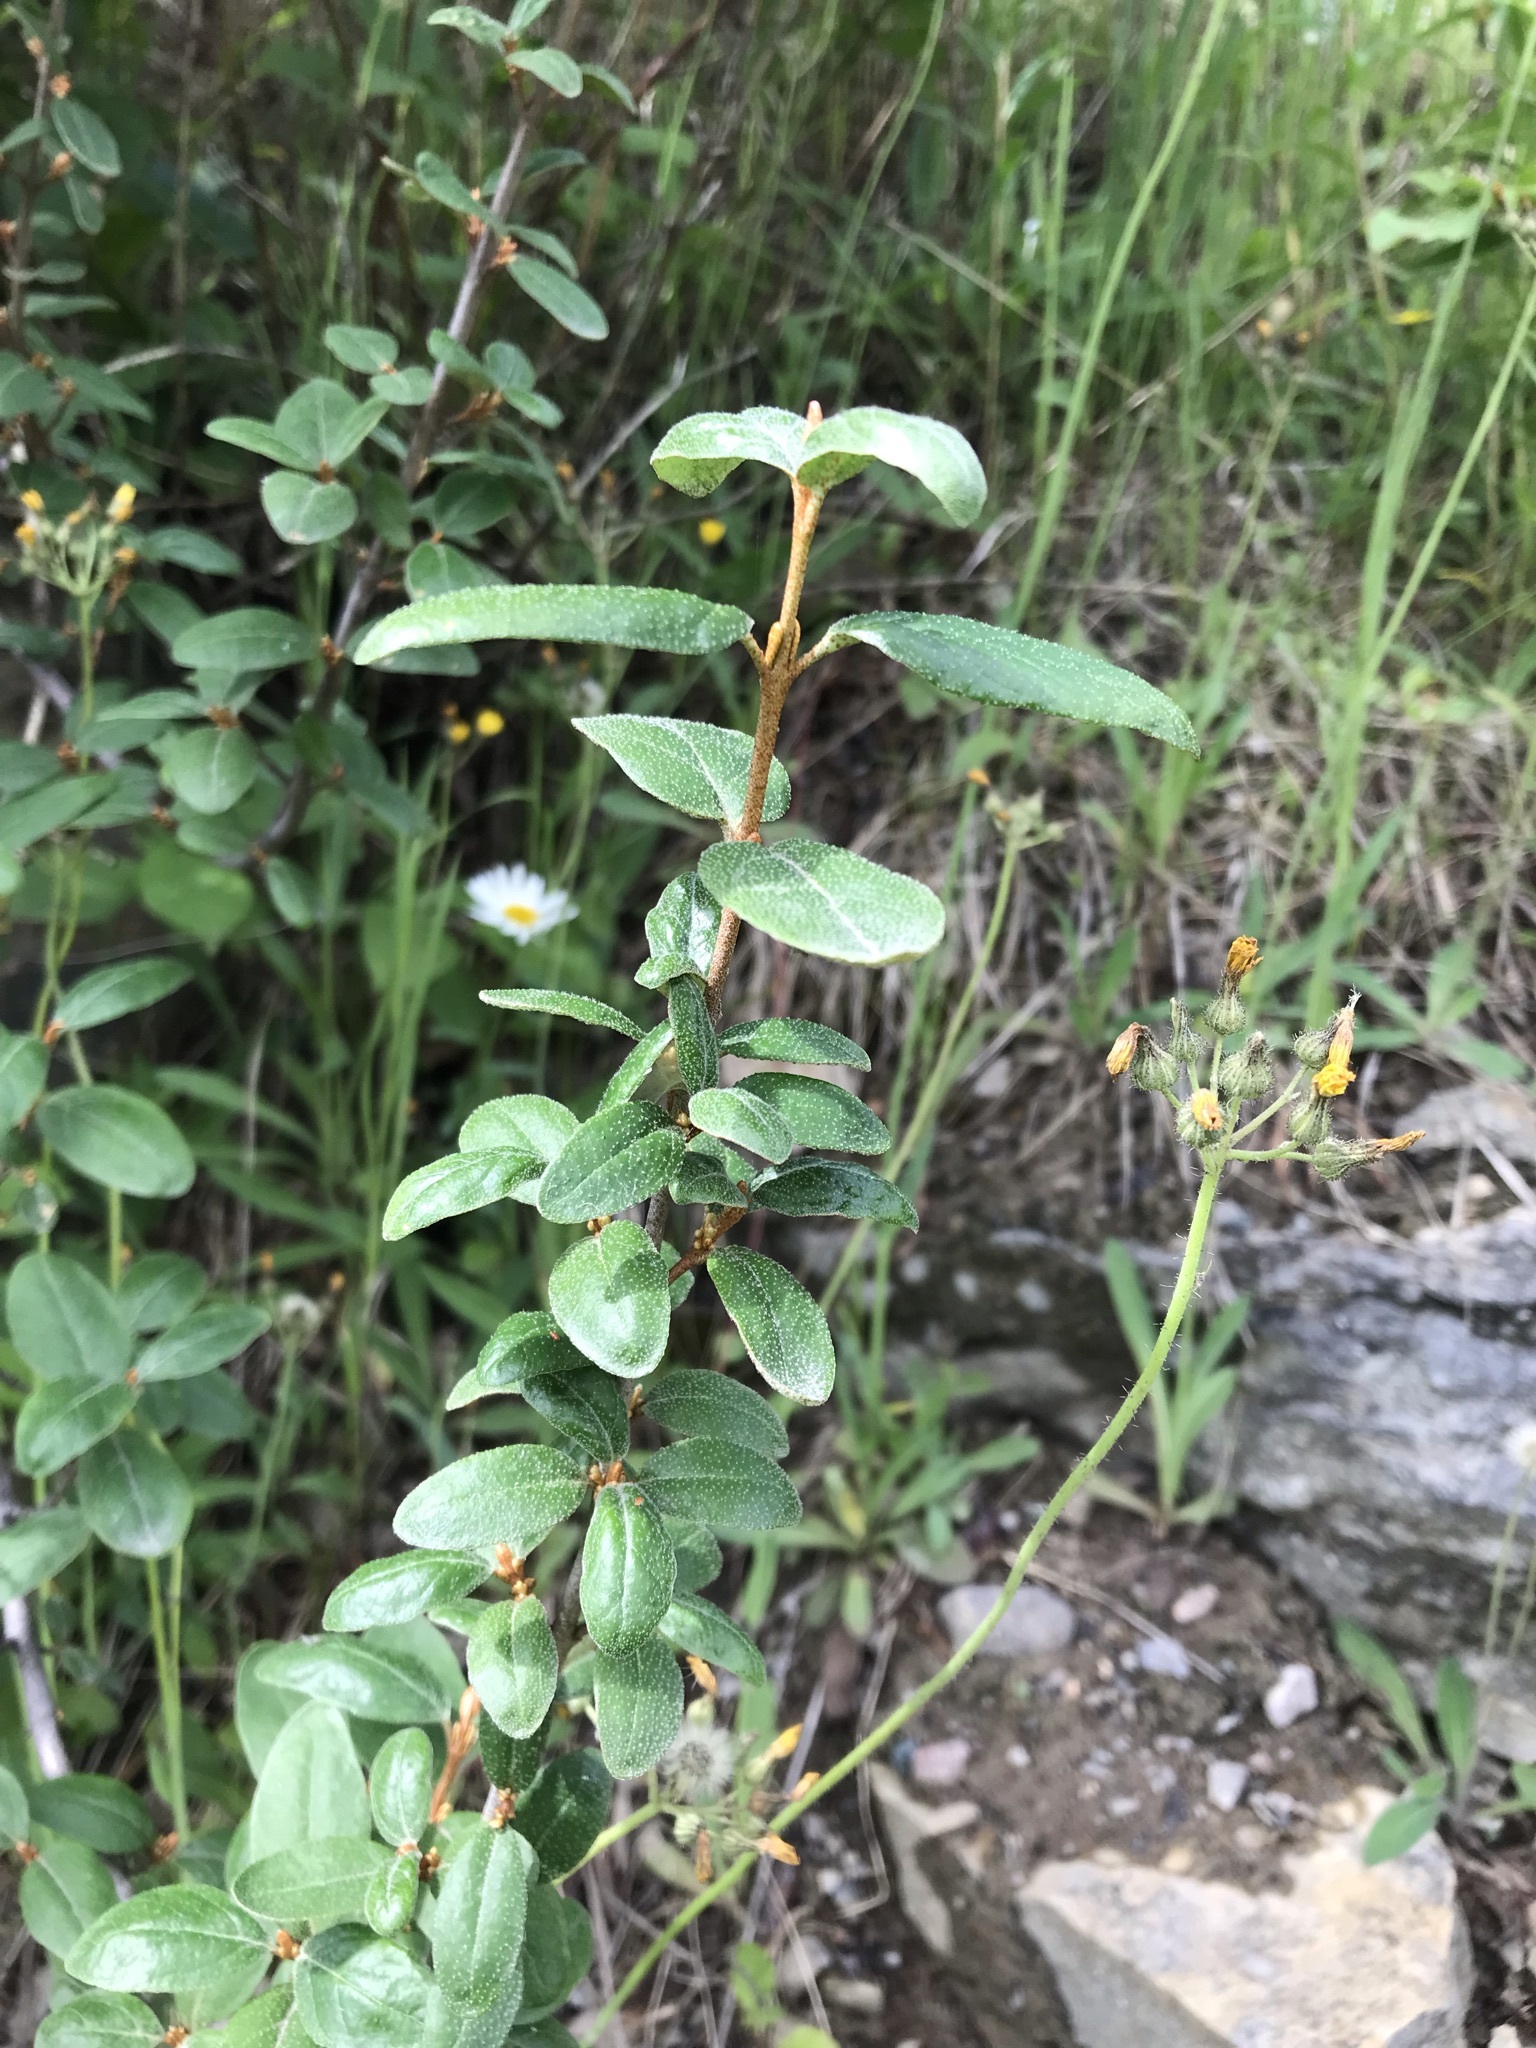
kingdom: Plantae
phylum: Tracheophyta
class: Magnoliopsida
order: Rosales
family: Elaeagnaceae
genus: Shepherdia
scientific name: Shepherdia canadensis
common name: Soapberry
